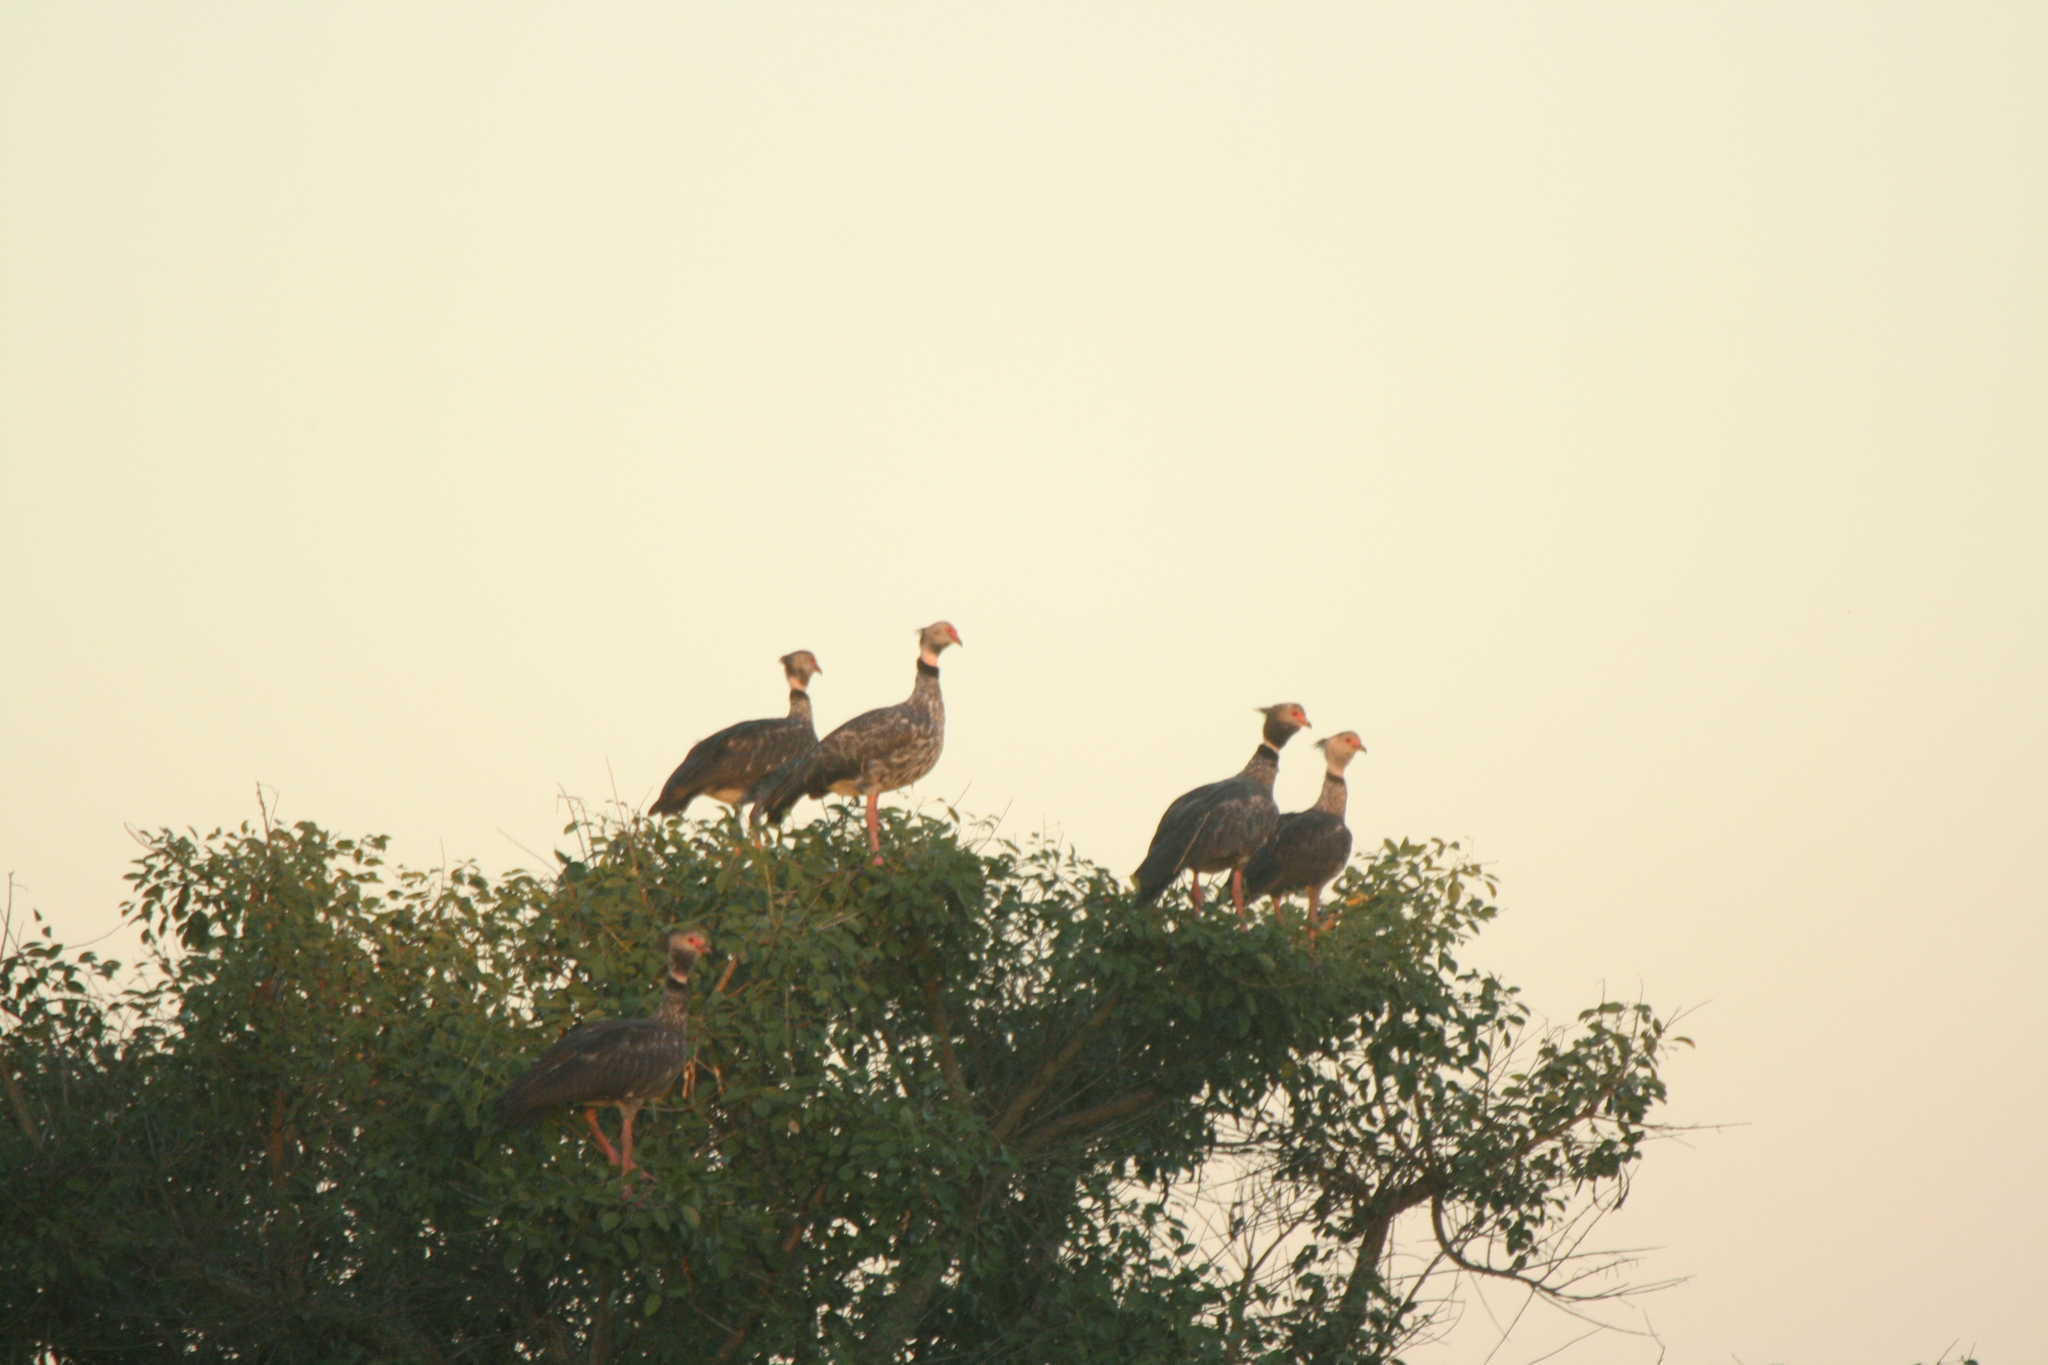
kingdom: Animalia
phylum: Chordata
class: Aves
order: Anseriformes
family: Anhimidae
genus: Chauna
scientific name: Chauna torquata
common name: Southern screamer
